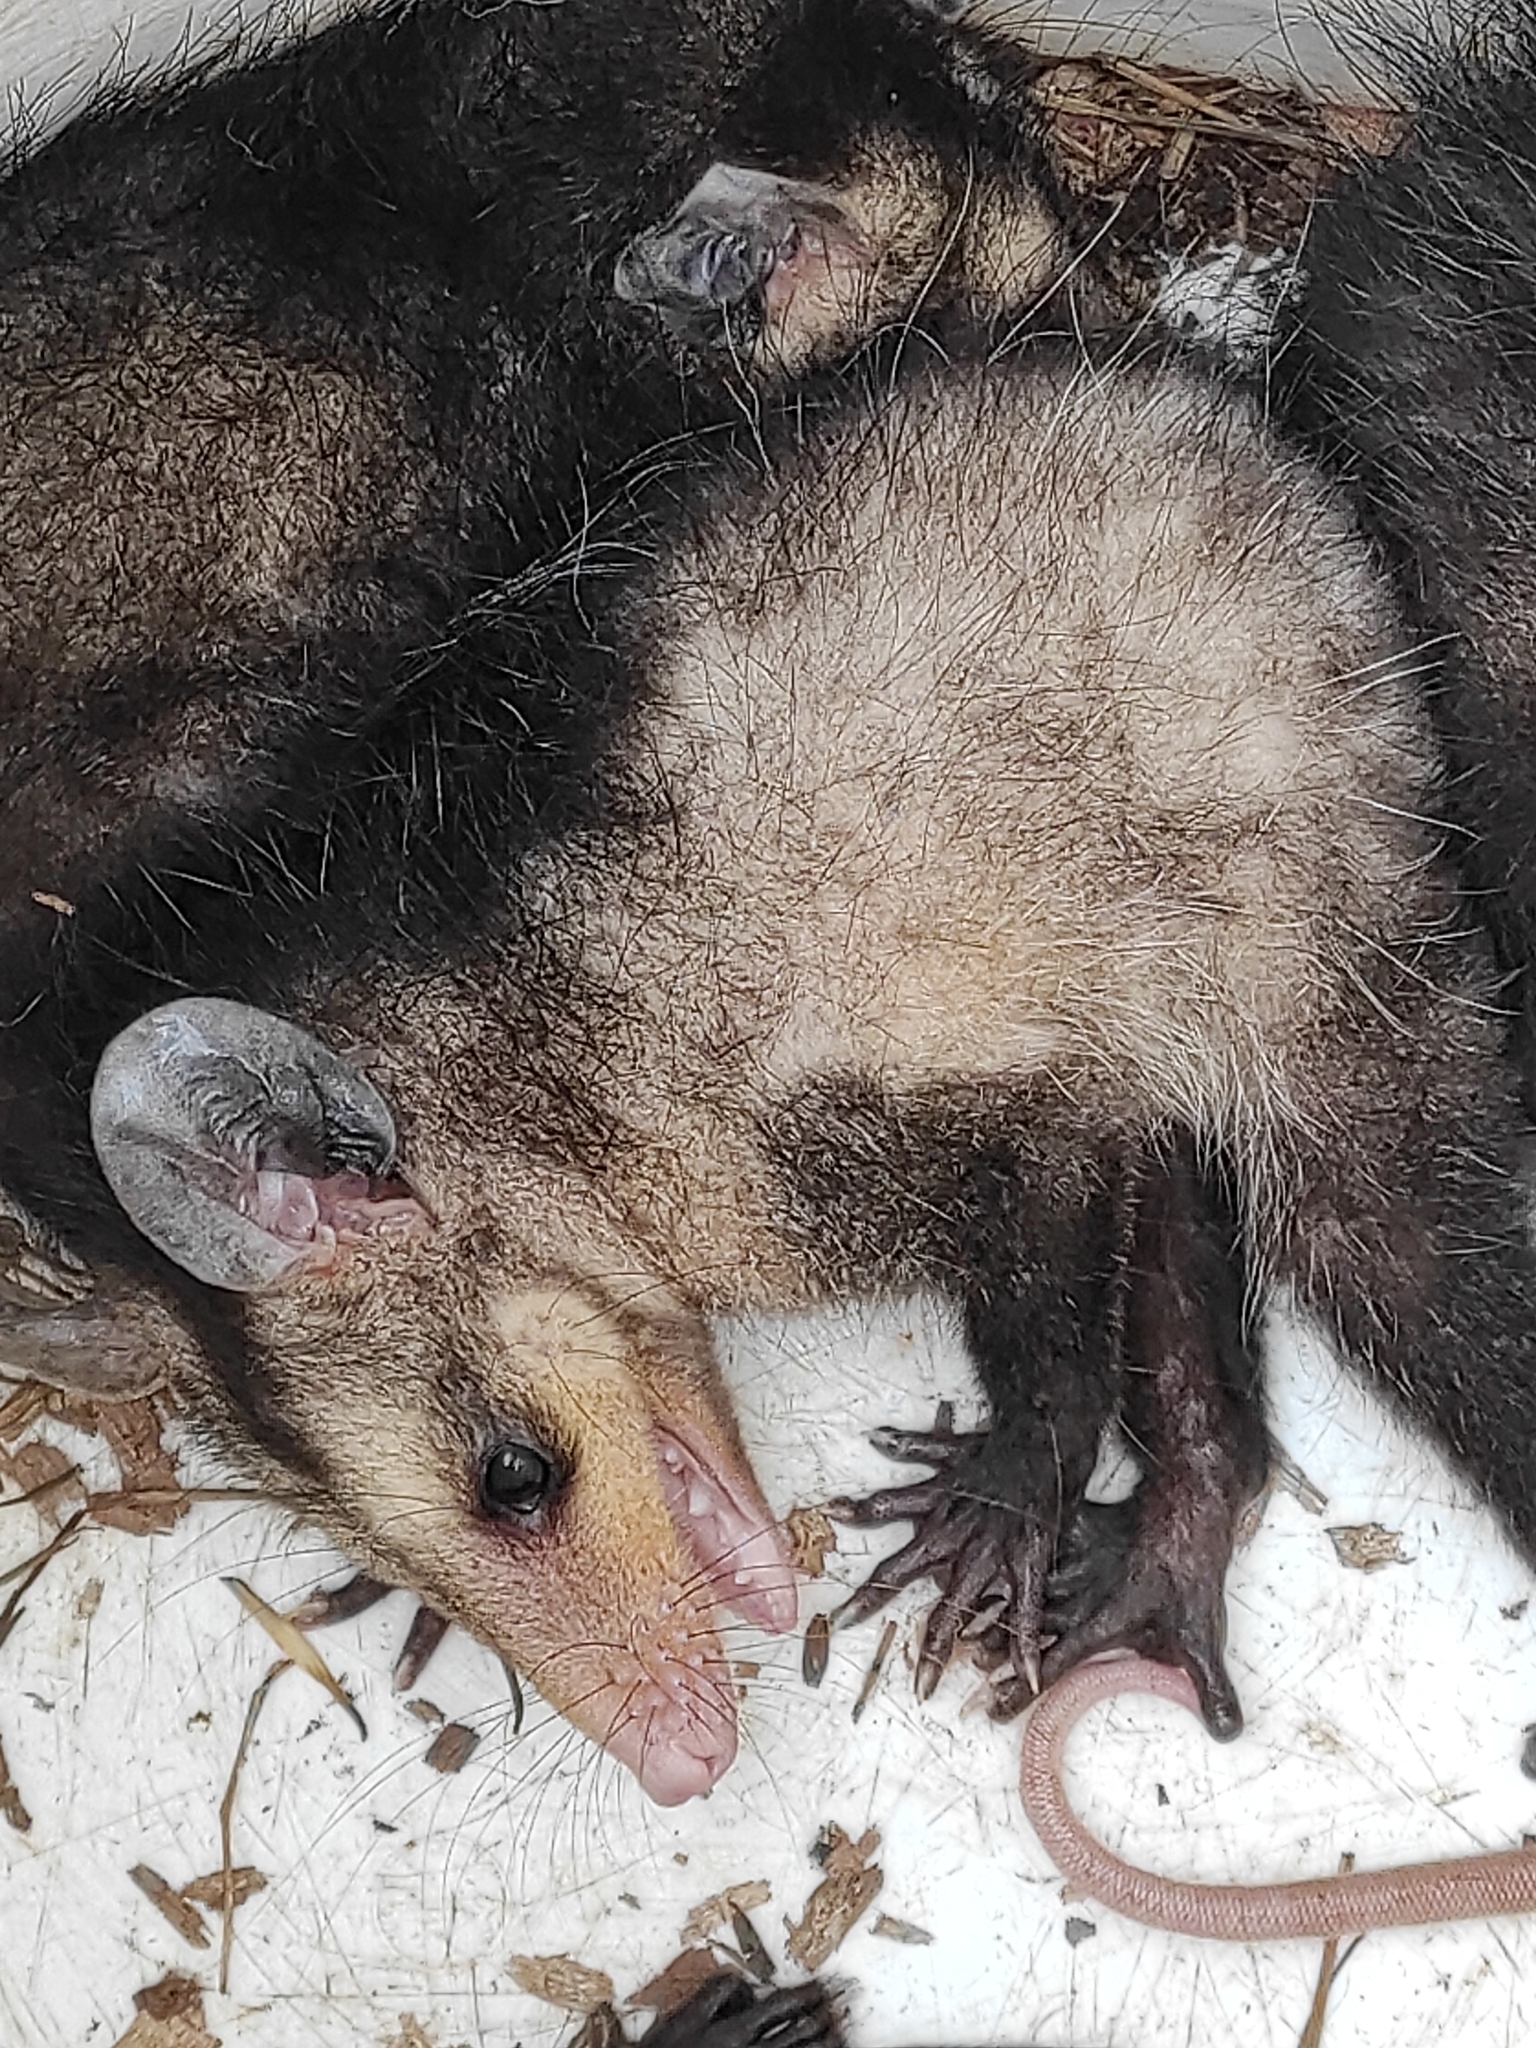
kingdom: Animalia
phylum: Chordata
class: Mammalia
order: Didelphimorphia
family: Didelphidae
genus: Didelphis
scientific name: Didelphis marsupialis
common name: Common opossum
